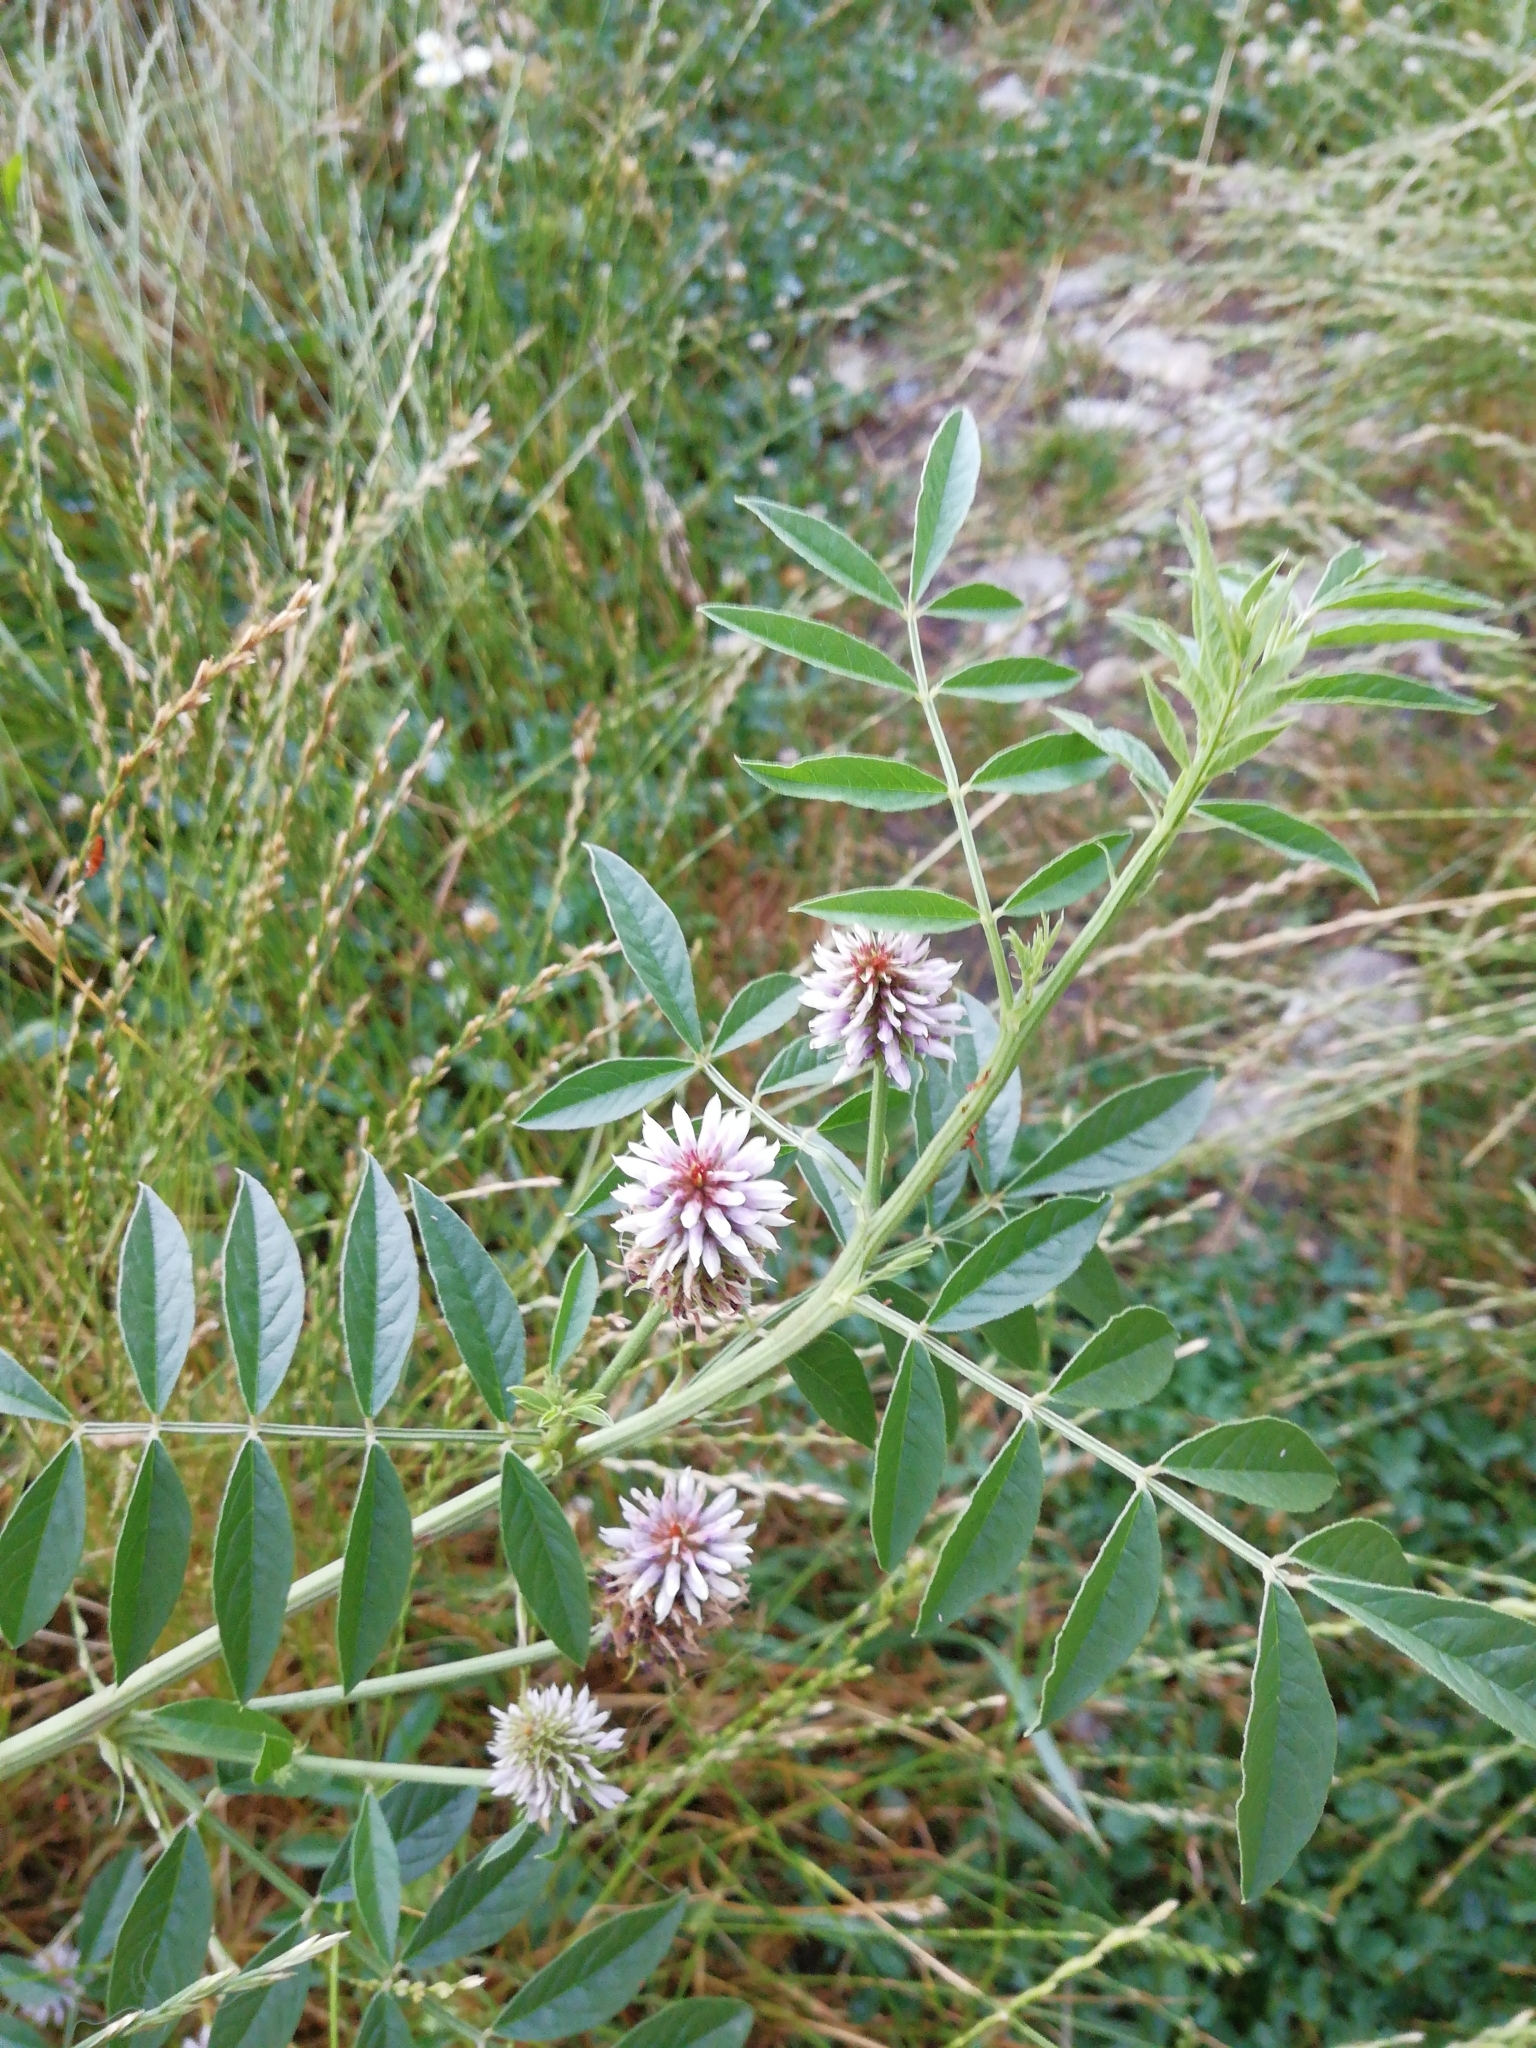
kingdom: Plantae
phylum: Tracheophyta
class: Magnoliopsida
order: Fabales
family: Fabaceae
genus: Glycyrrhiza
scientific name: Glycyrrhiza echinata
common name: German liquorice
